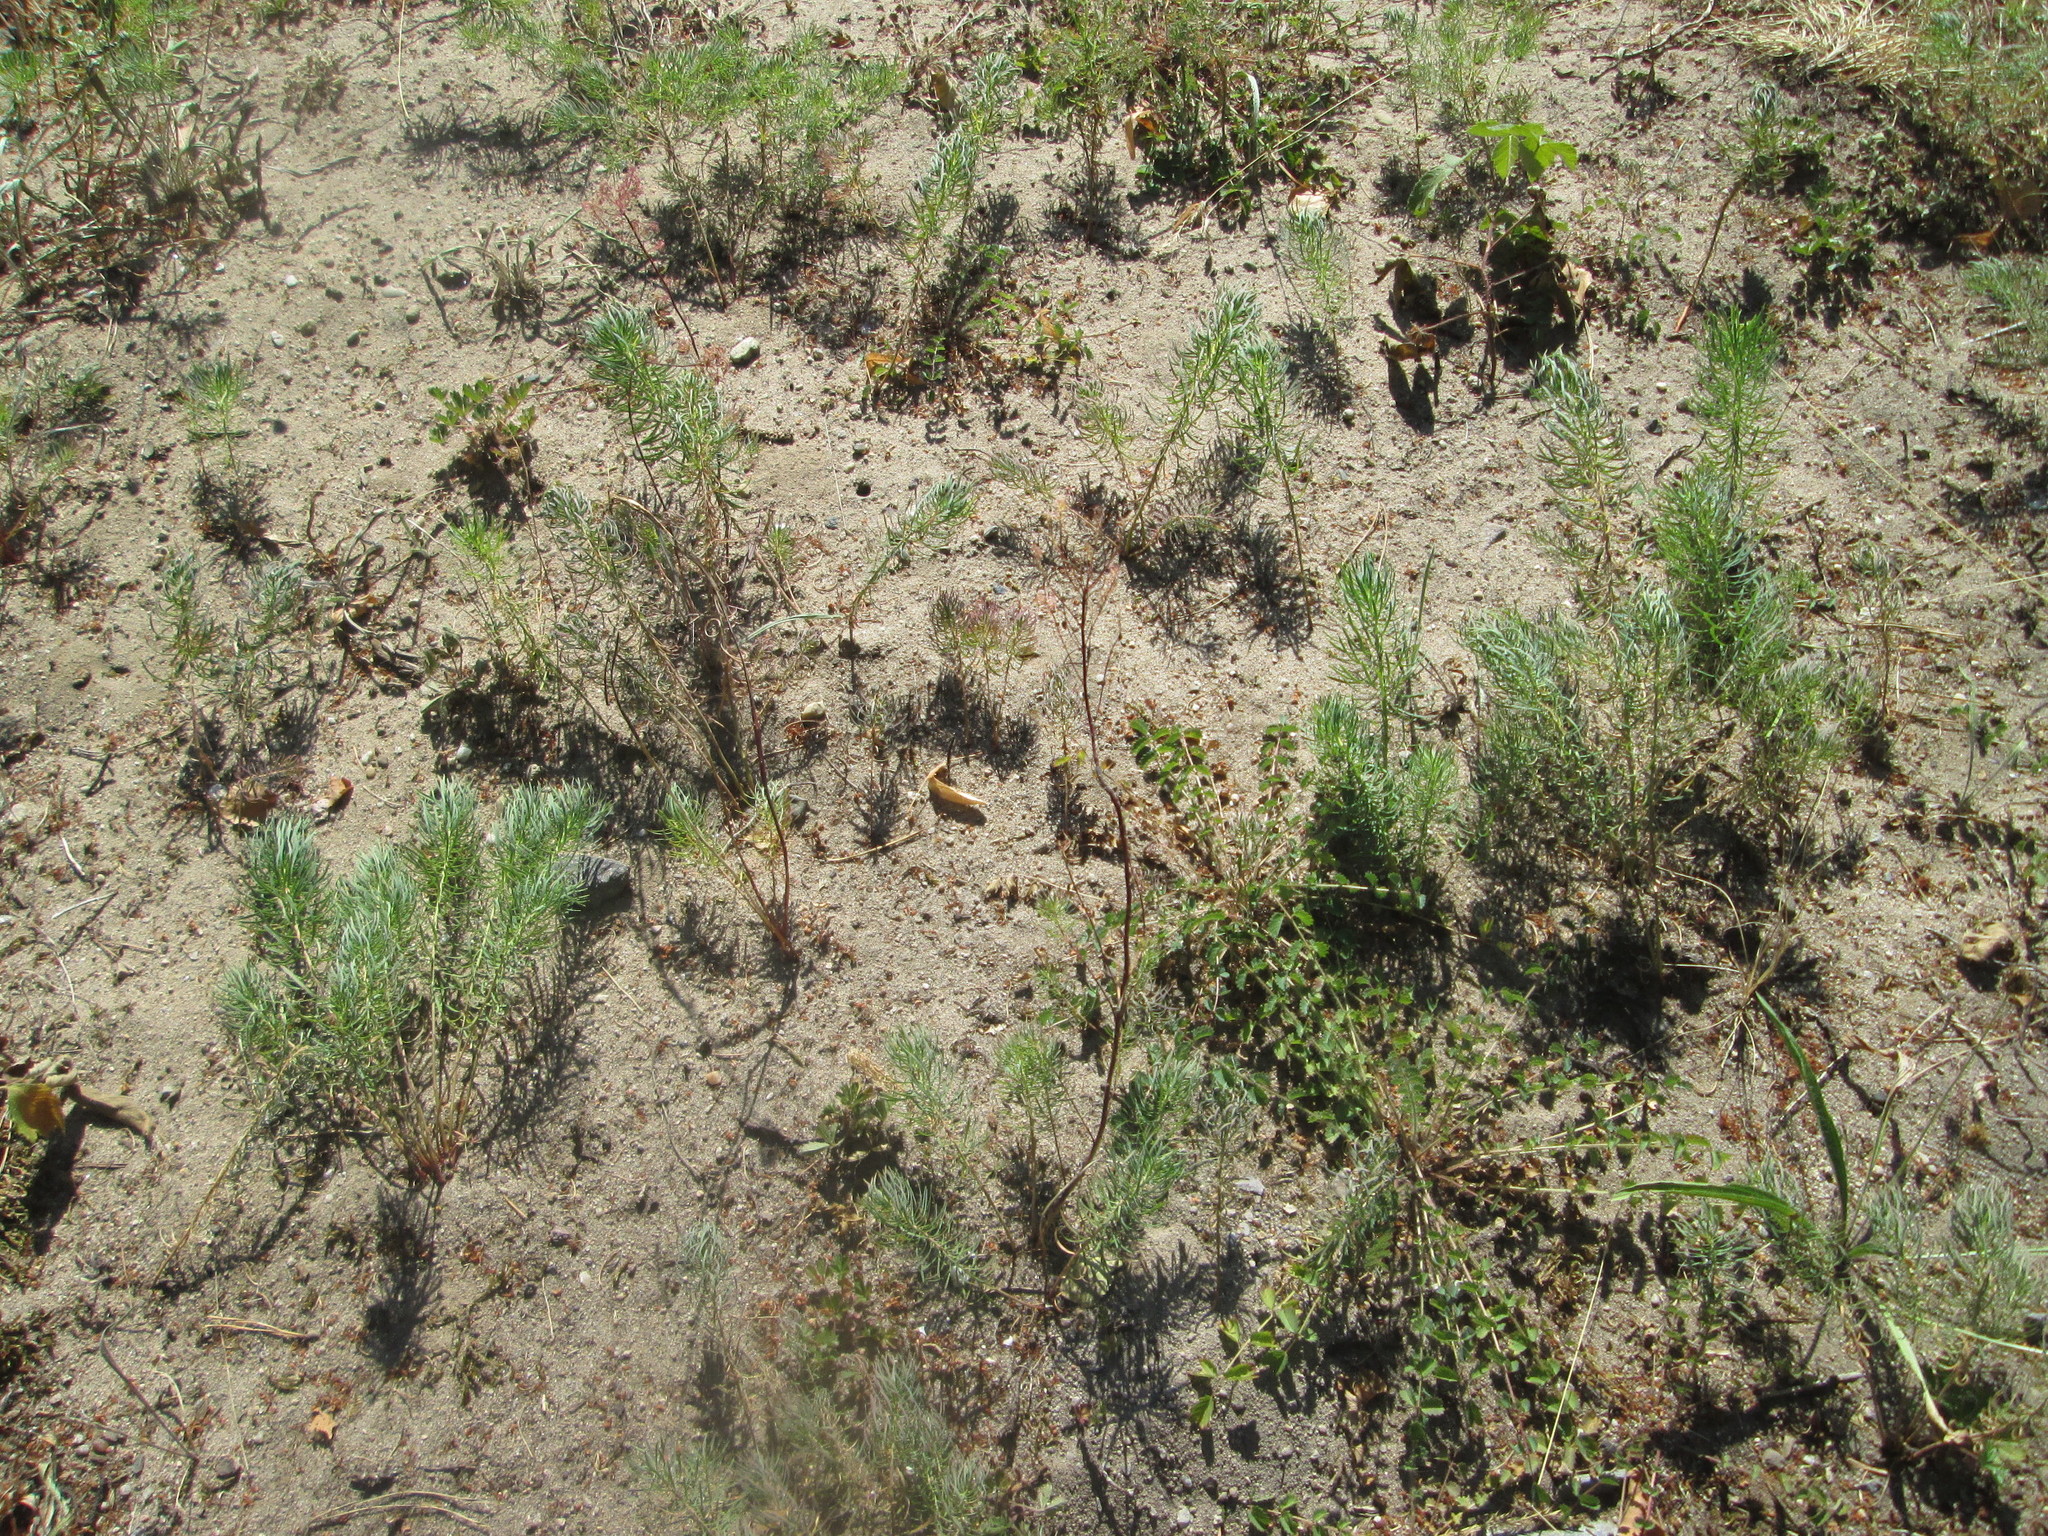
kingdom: Plantae
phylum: Tracheophyta
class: Magnoliopsida
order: Malpighiales
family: Euphorbiaceae
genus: Euphorbia
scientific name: Euphorbia cyparissias
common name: Cypress spurge
